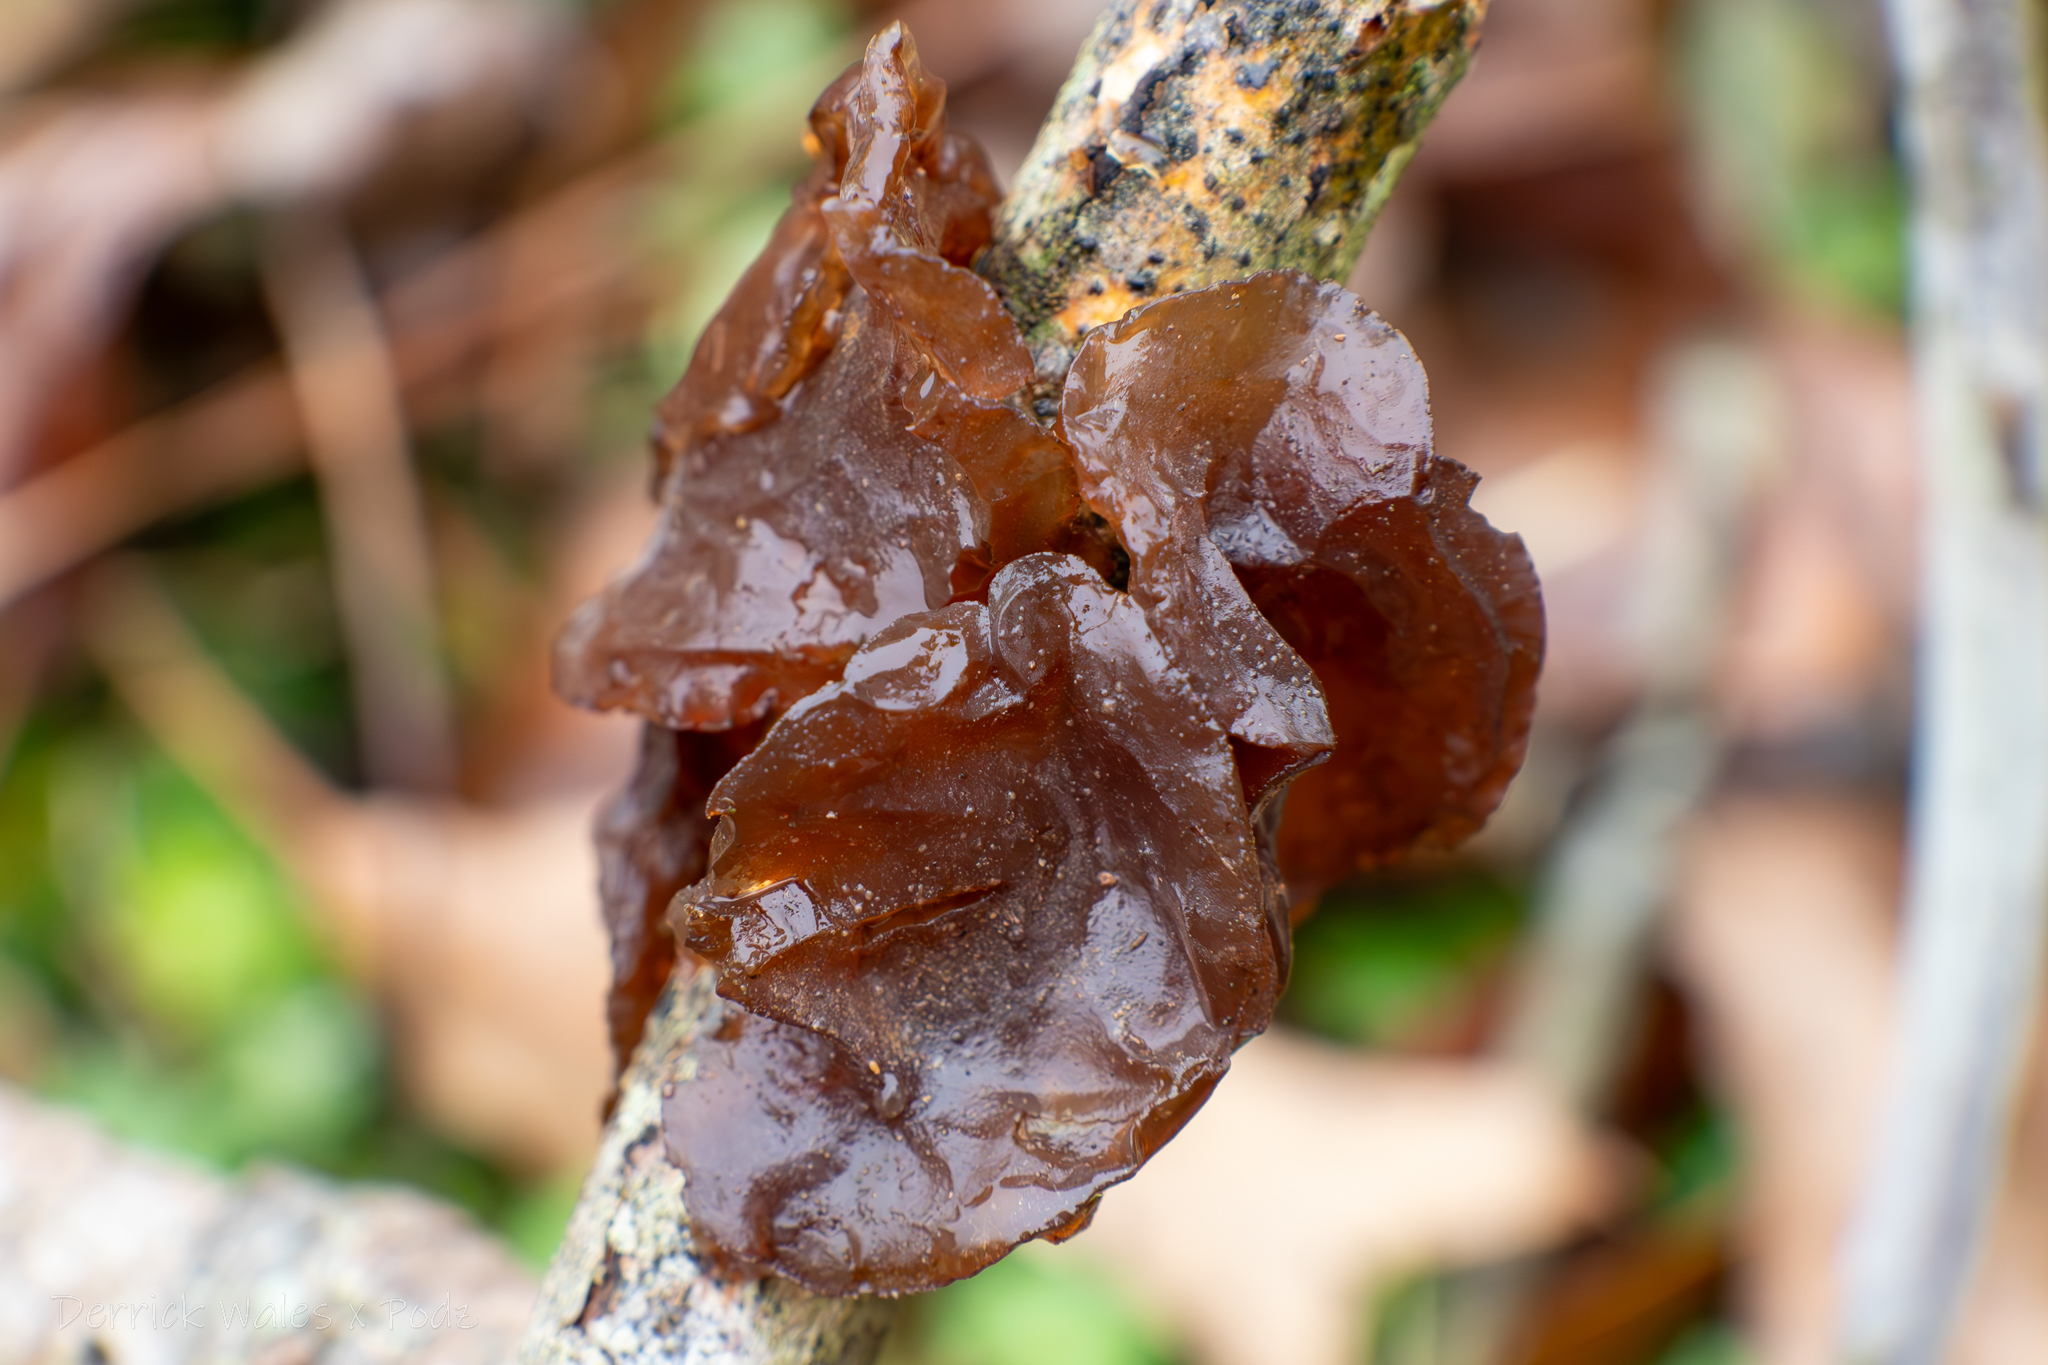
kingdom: Fungi
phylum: Basidiomycota
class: Agaricomycetes
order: Auriculariales
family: Auriculariaceae
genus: Exidia
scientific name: Exidia
